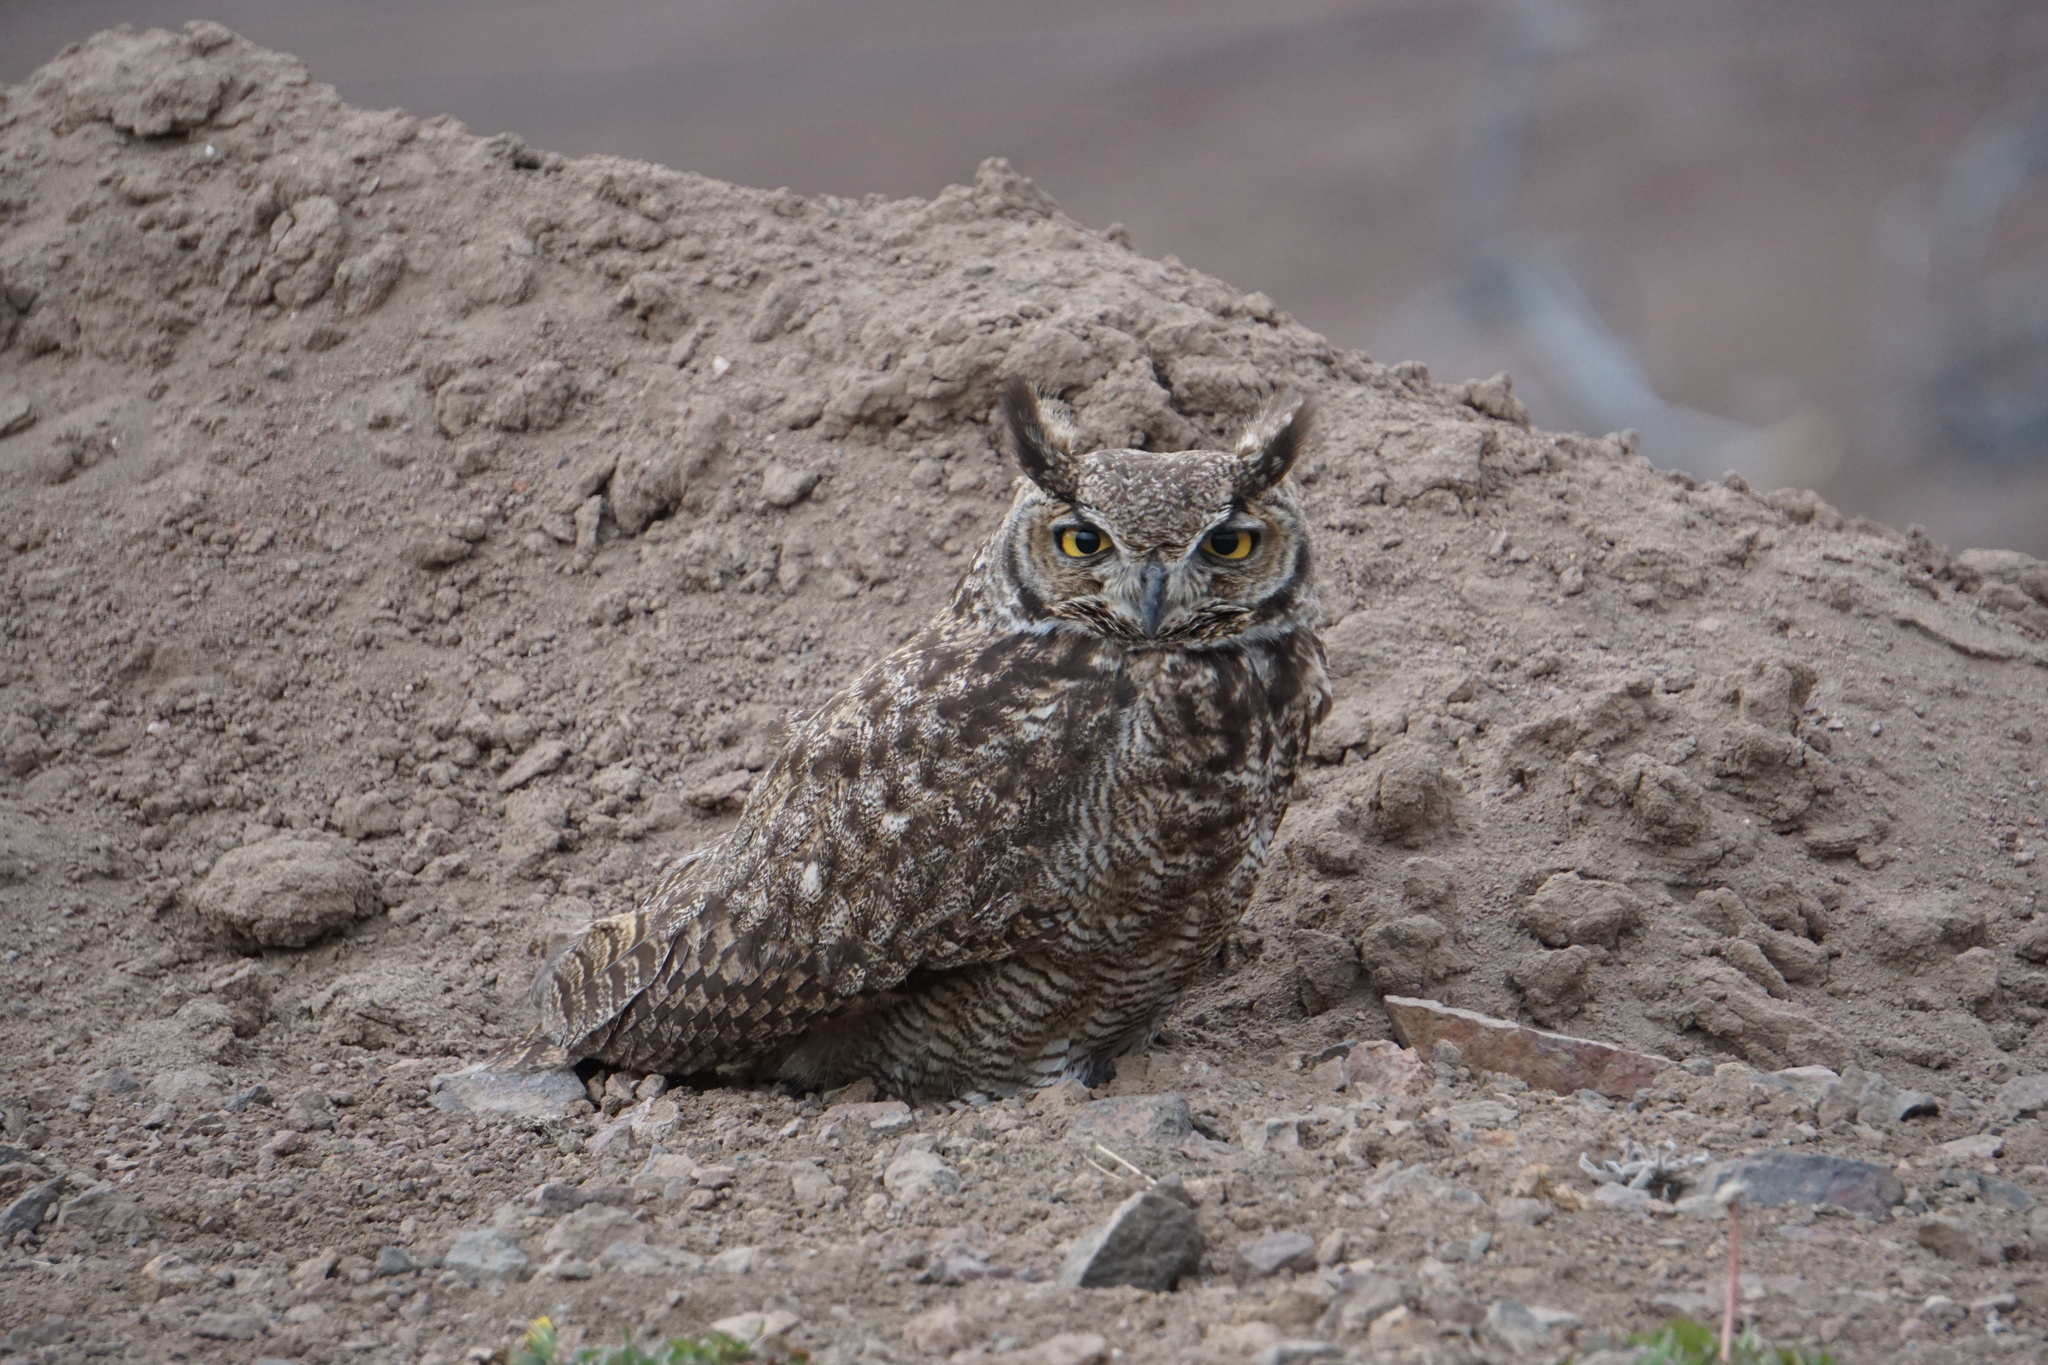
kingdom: Animalia
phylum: Chordata
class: Aves
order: Strigiformes
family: Strigidae
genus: Bubo
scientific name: Bubo magellanicus
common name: Lesser horned owl
